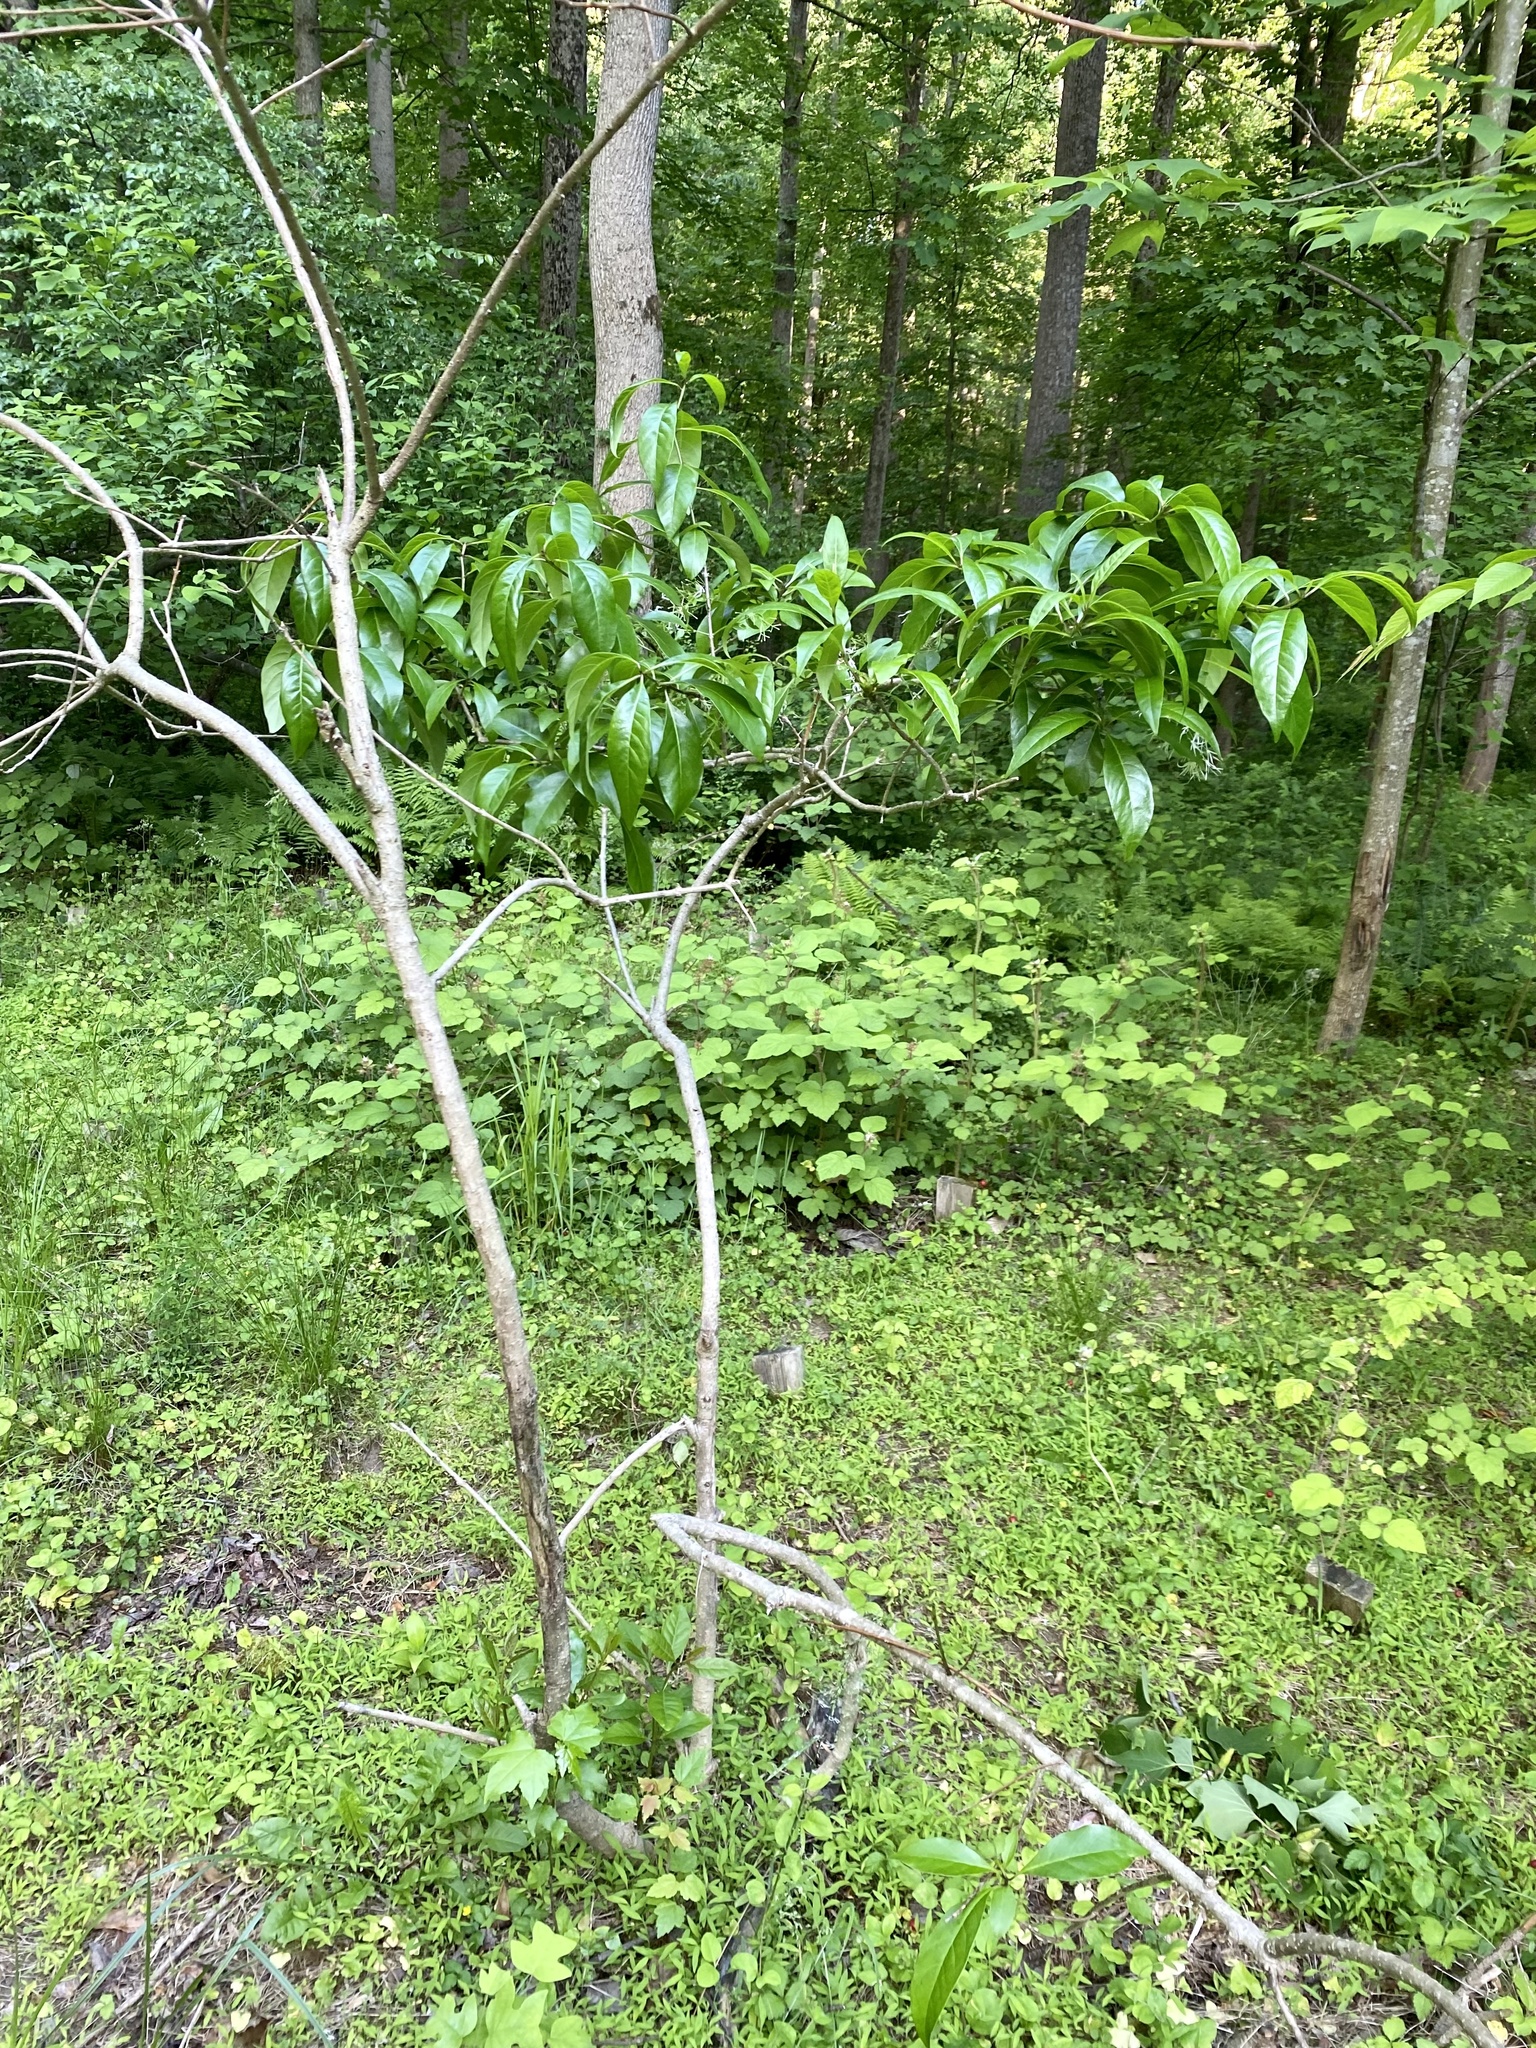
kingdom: Plantae
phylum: Tracheophyta
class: Magnoliopsida
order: Lamiales
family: Oleaceae
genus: Chionanthus
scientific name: Chionanthus virginicus
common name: American fringetree
